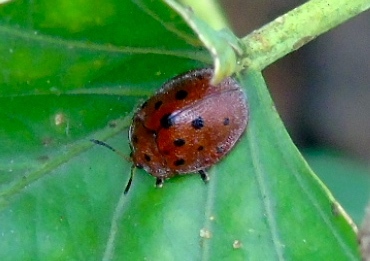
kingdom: Animalia
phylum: Arthropoda
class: Insecta
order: Coleoptera
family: Chrysomelidae
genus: Chelymorpha
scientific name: Chelymorpha
